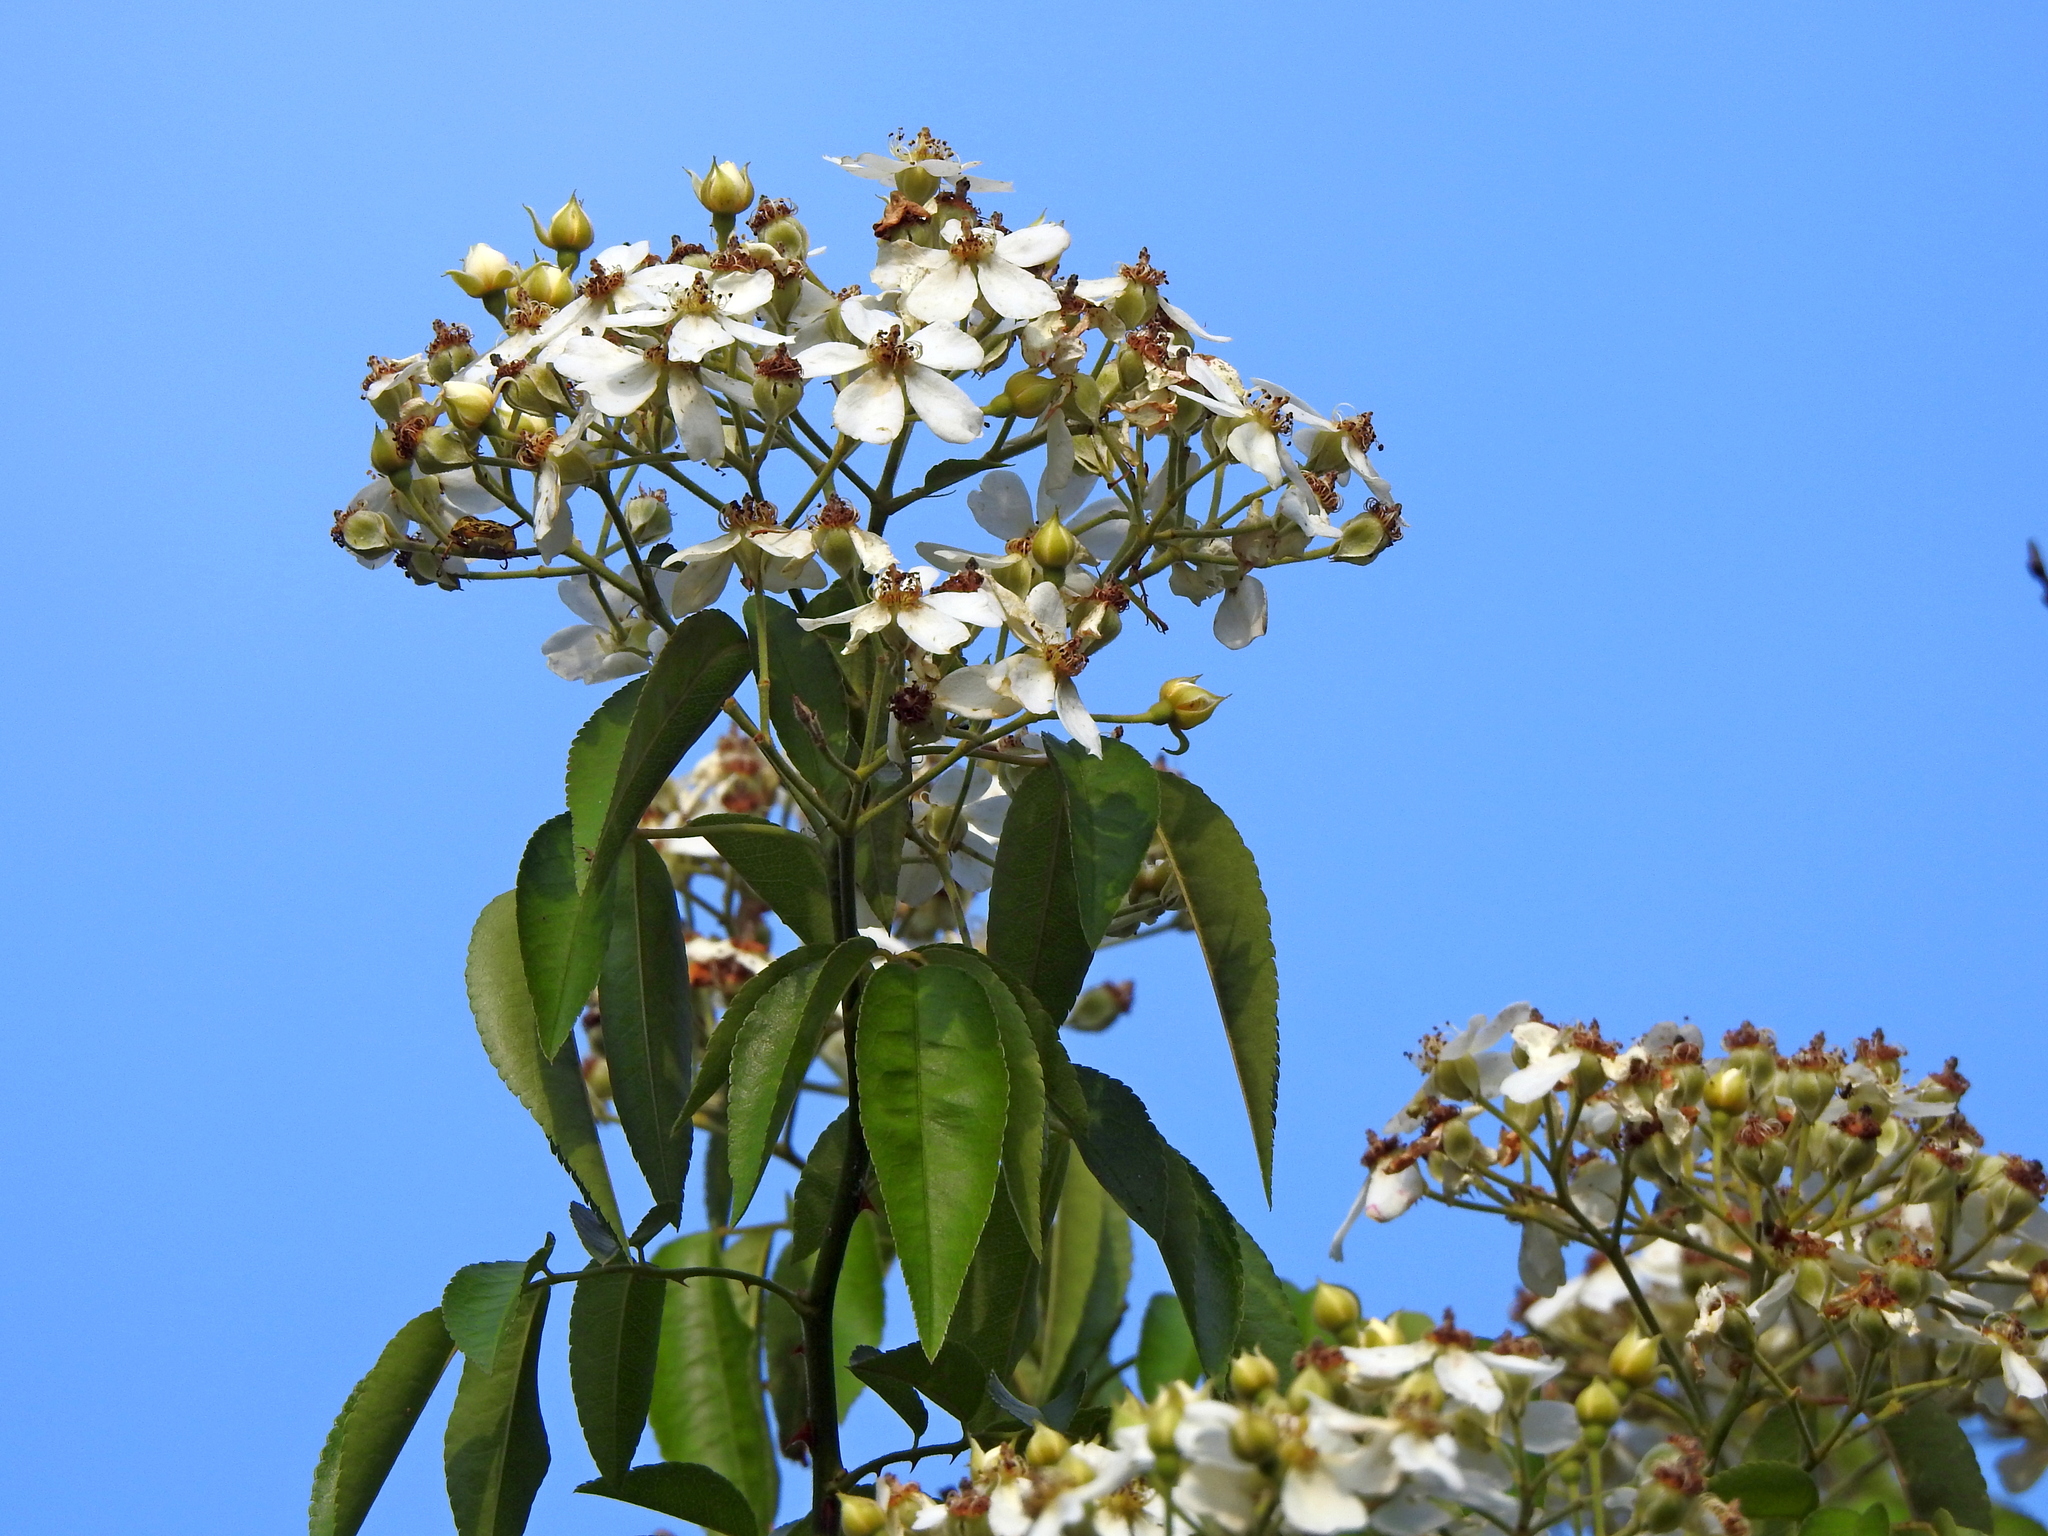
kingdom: Plantae
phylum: Tracheophyta
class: Magnoliopsida
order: Rosales
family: Rosaceae
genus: Rosa
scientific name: Rosa
